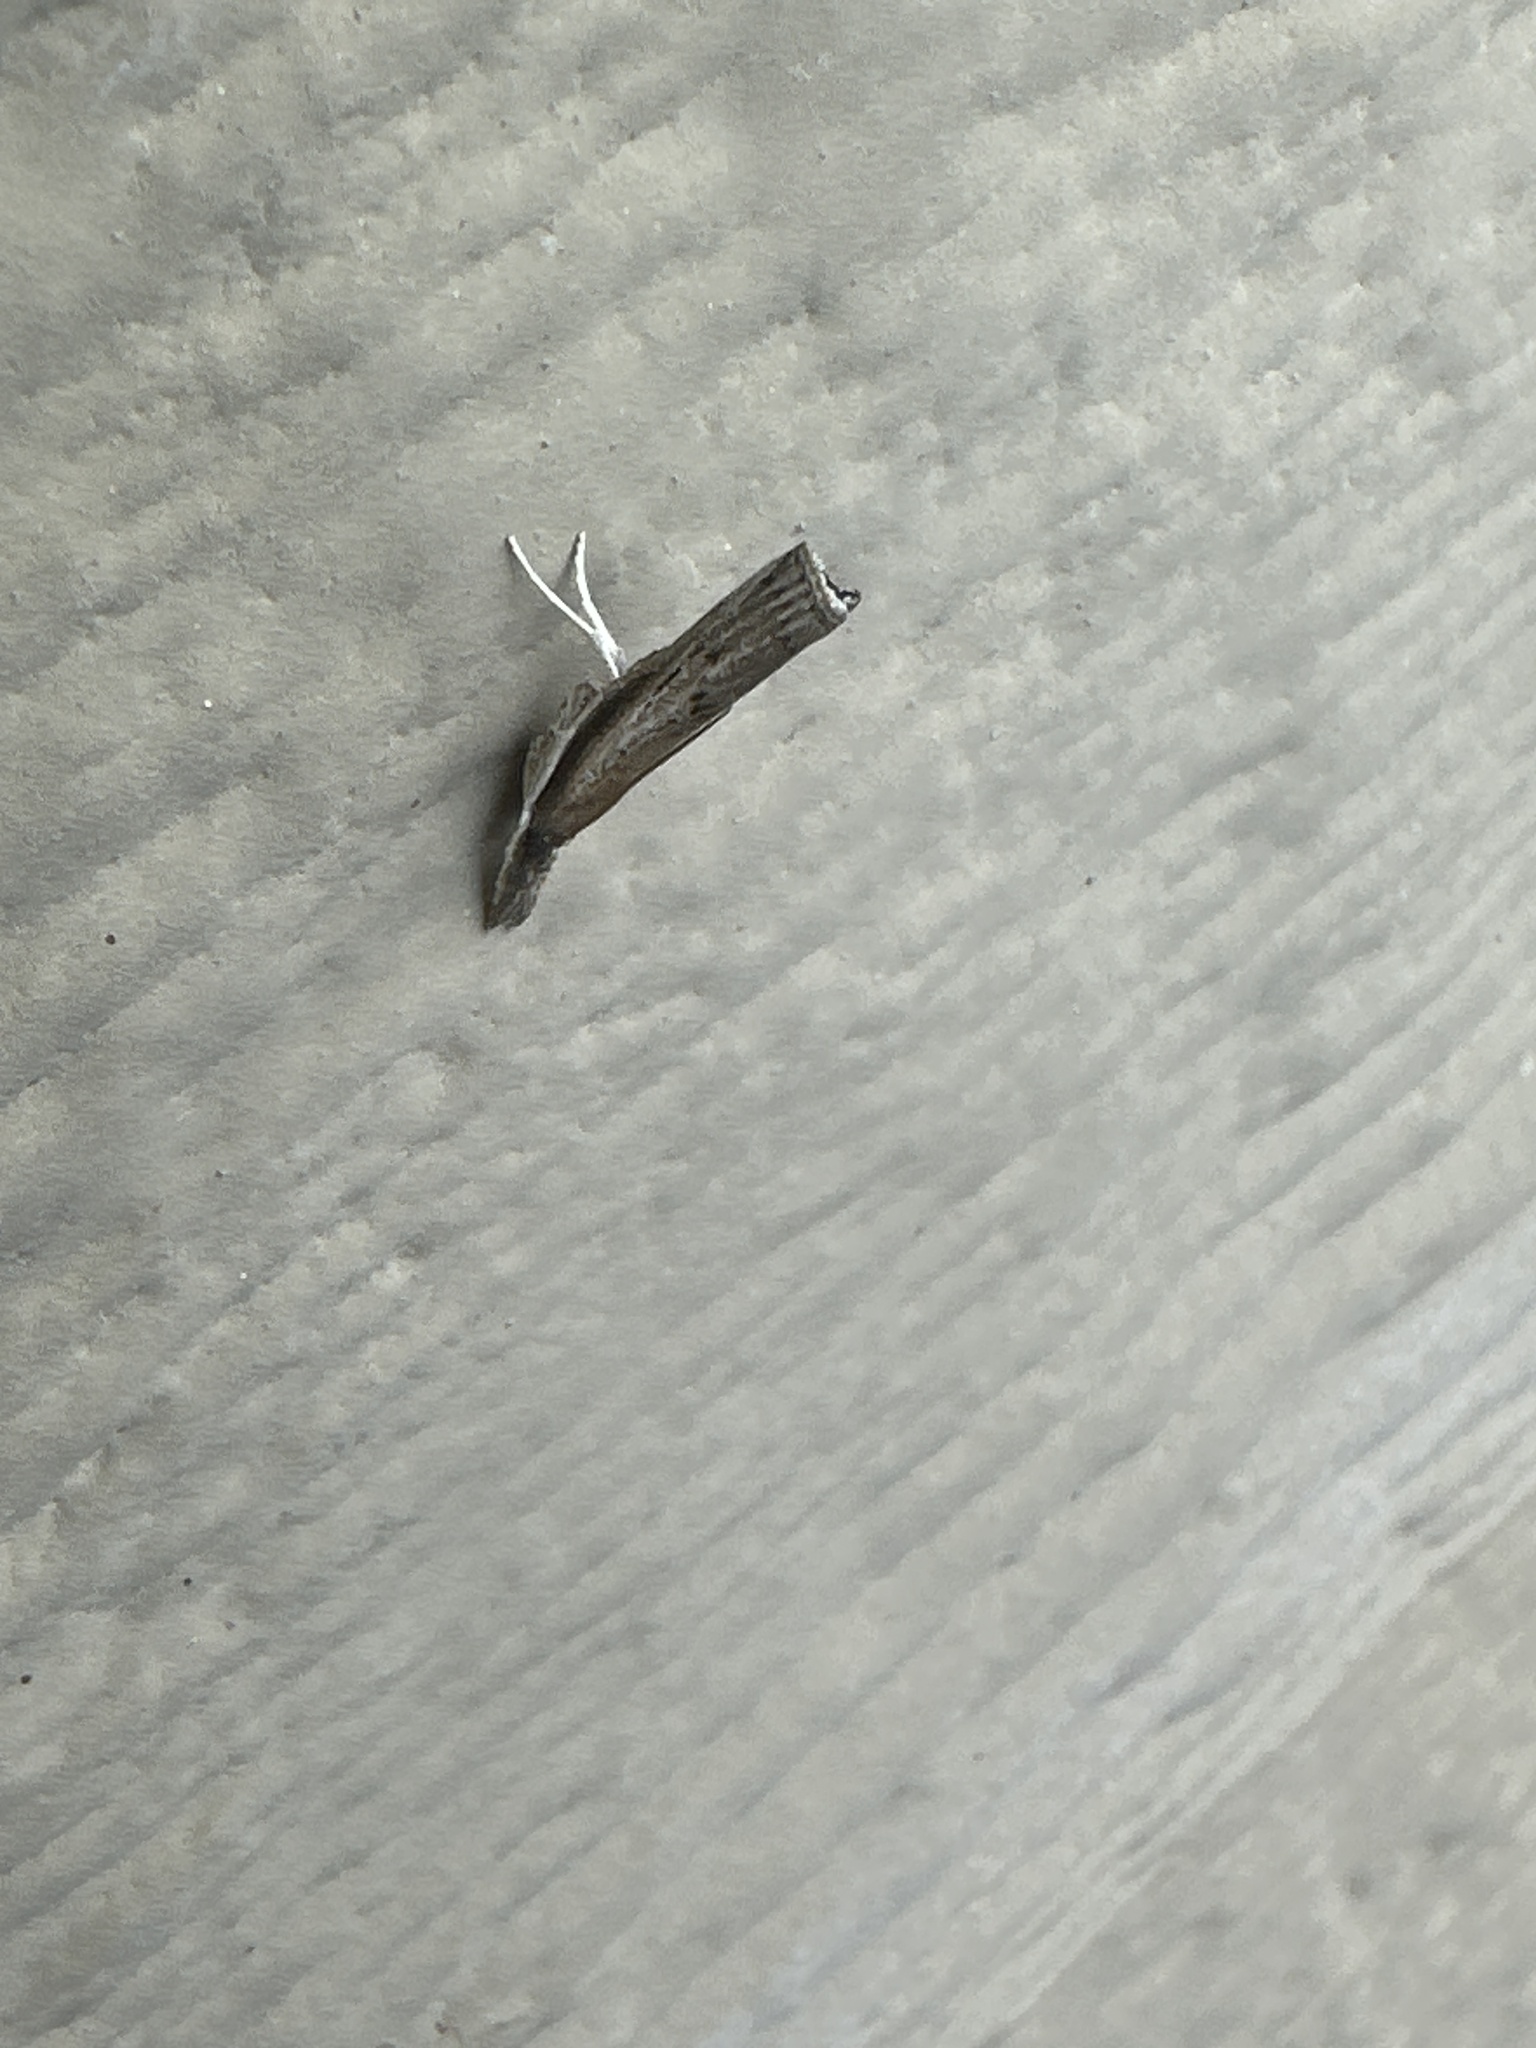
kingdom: Animalia
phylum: Arthropoda
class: Insecta
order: Lepidoptera
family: Crambidae
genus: Fissicrambus
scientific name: Fissicrambus mutabilis
